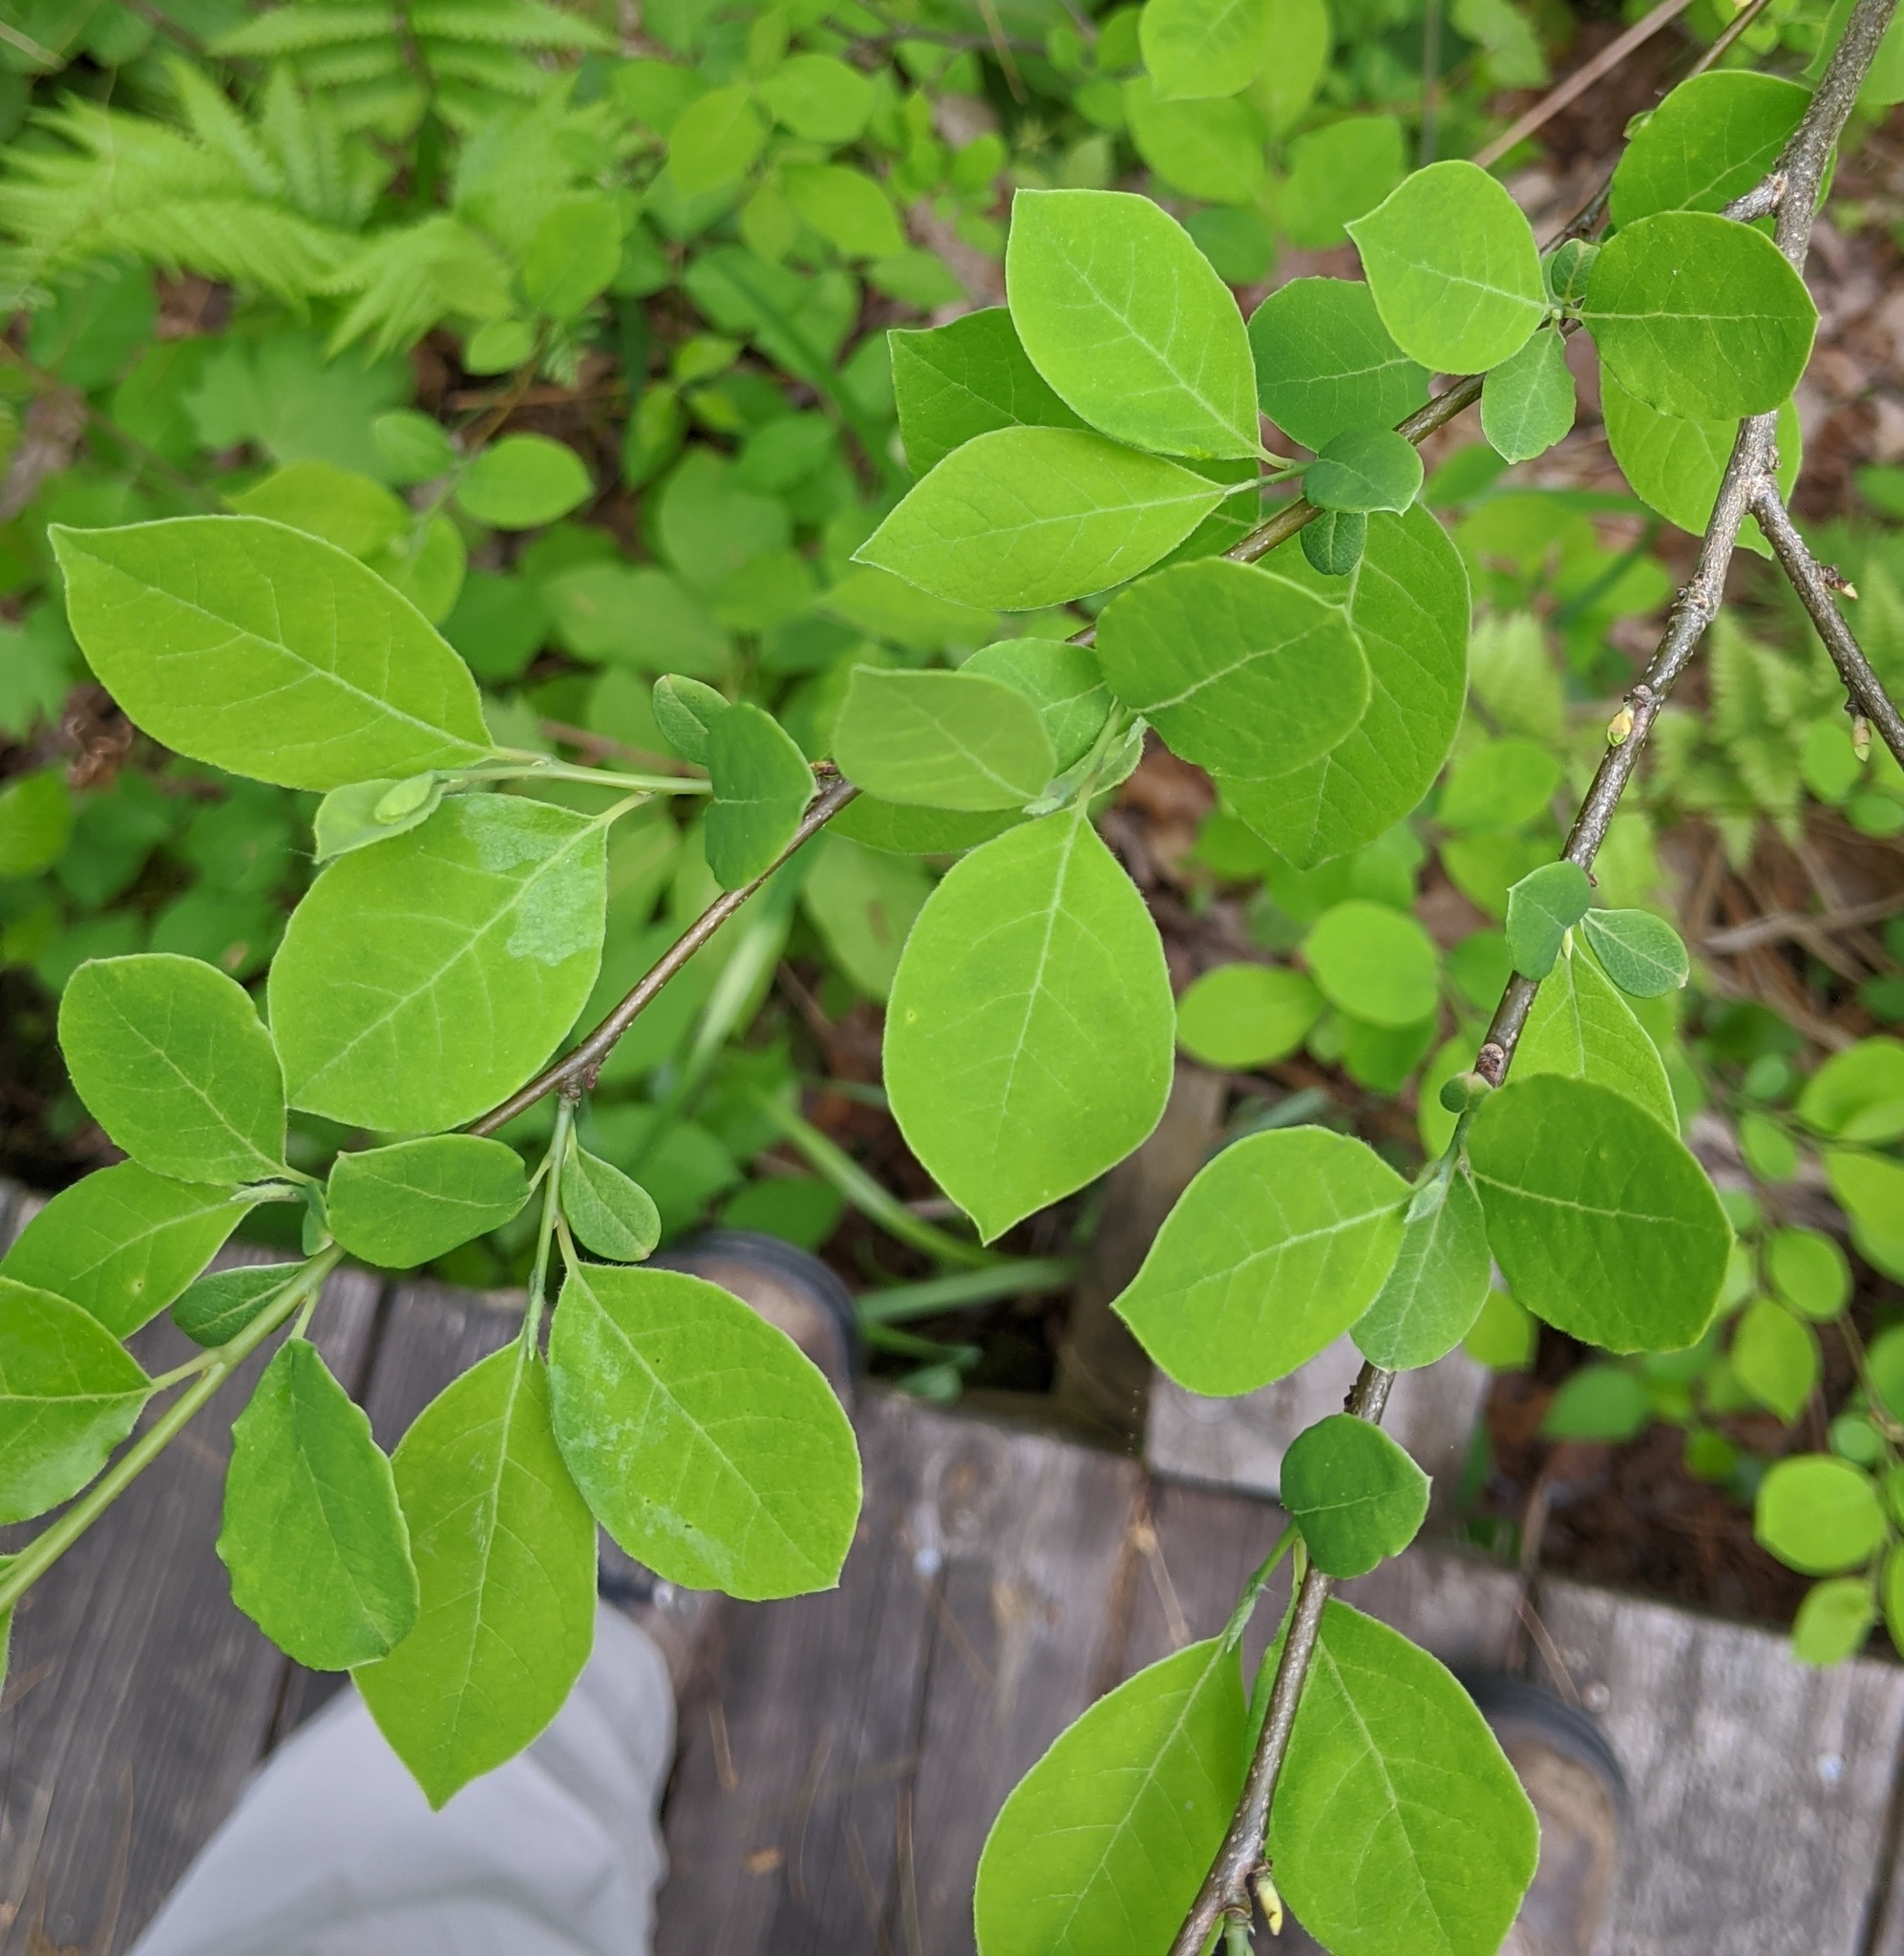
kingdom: Plantae
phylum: Tracheophyta
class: Magnoliopsida
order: Laurales
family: Lauraceae
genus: Lindera
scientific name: Lindera benzoin
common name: Spicebush
